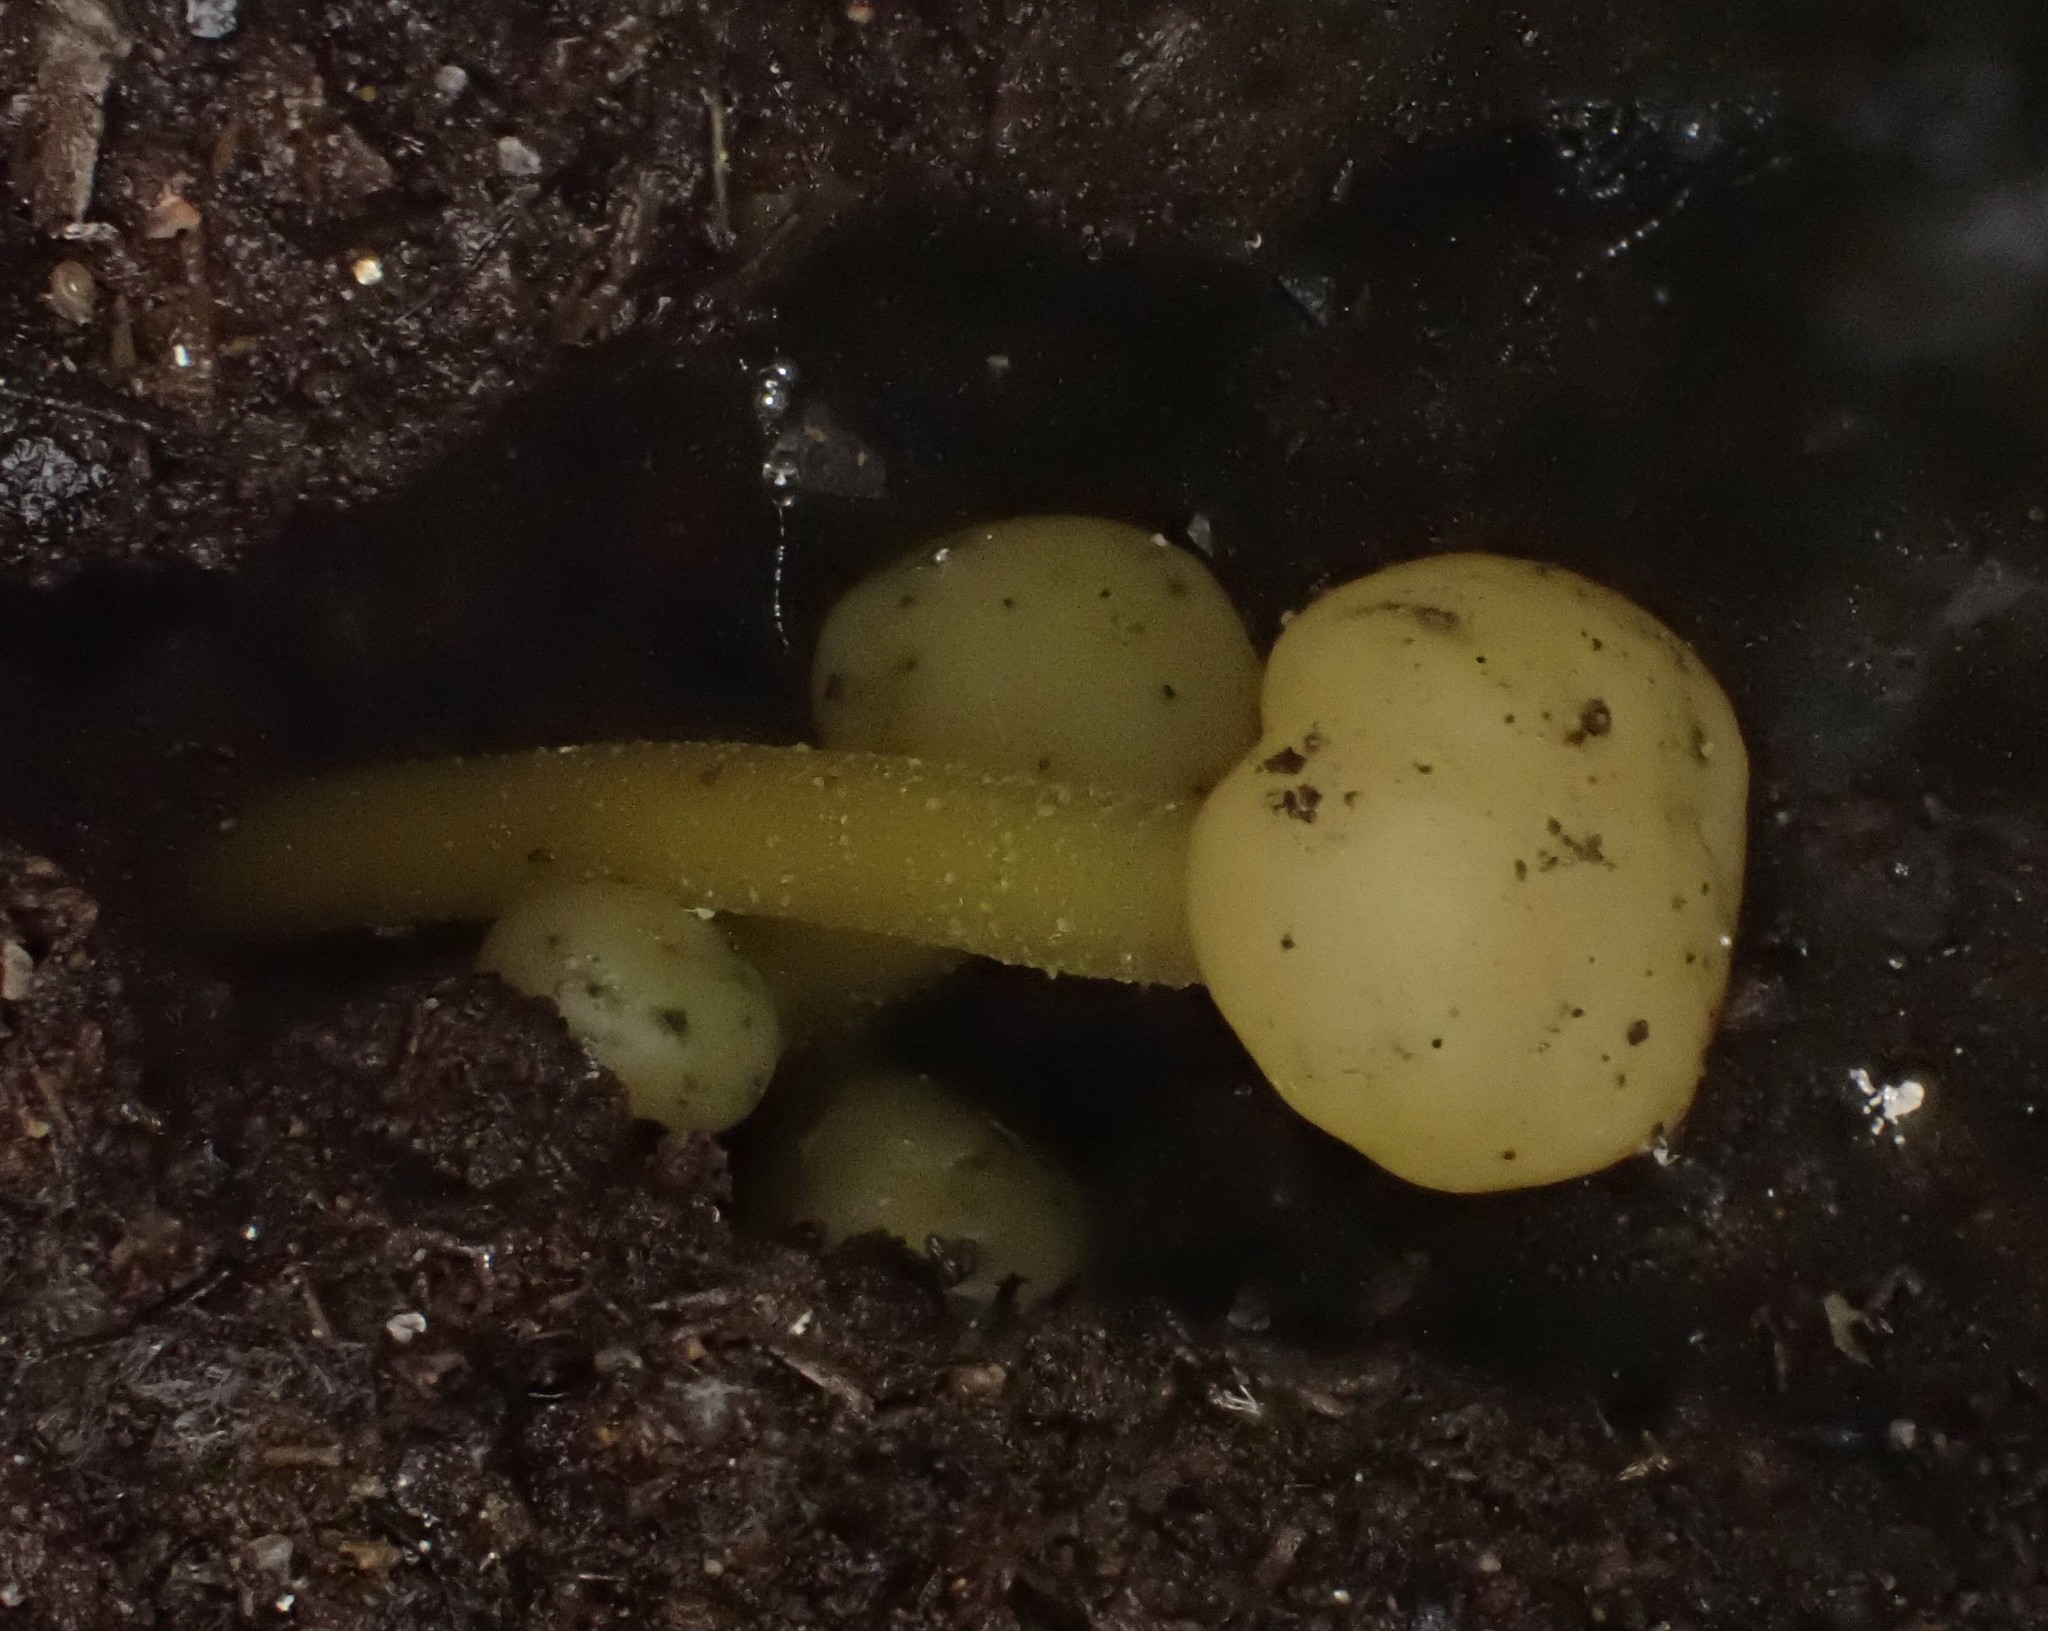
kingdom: Fungi
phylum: Ascomycota
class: Leotiomycetes
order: Leotiales
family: Leotiaceae
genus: Leotia
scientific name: Leotia lubrica
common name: Jellybaby
